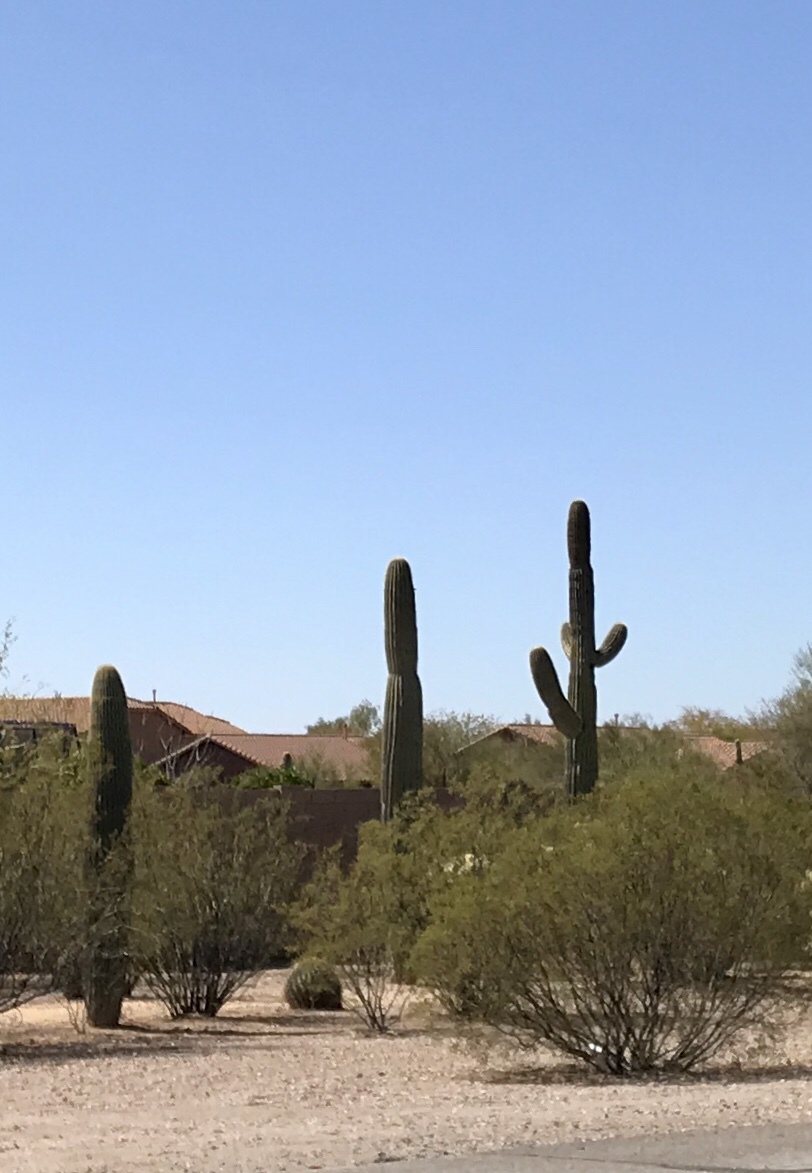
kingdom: Plantae
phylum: Tracheophyta
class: Magnoliopsida
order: Caryophyllales
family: Cactaceae
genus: Carnegiea
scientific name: Carnegiea gigantea
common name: Saguaro
